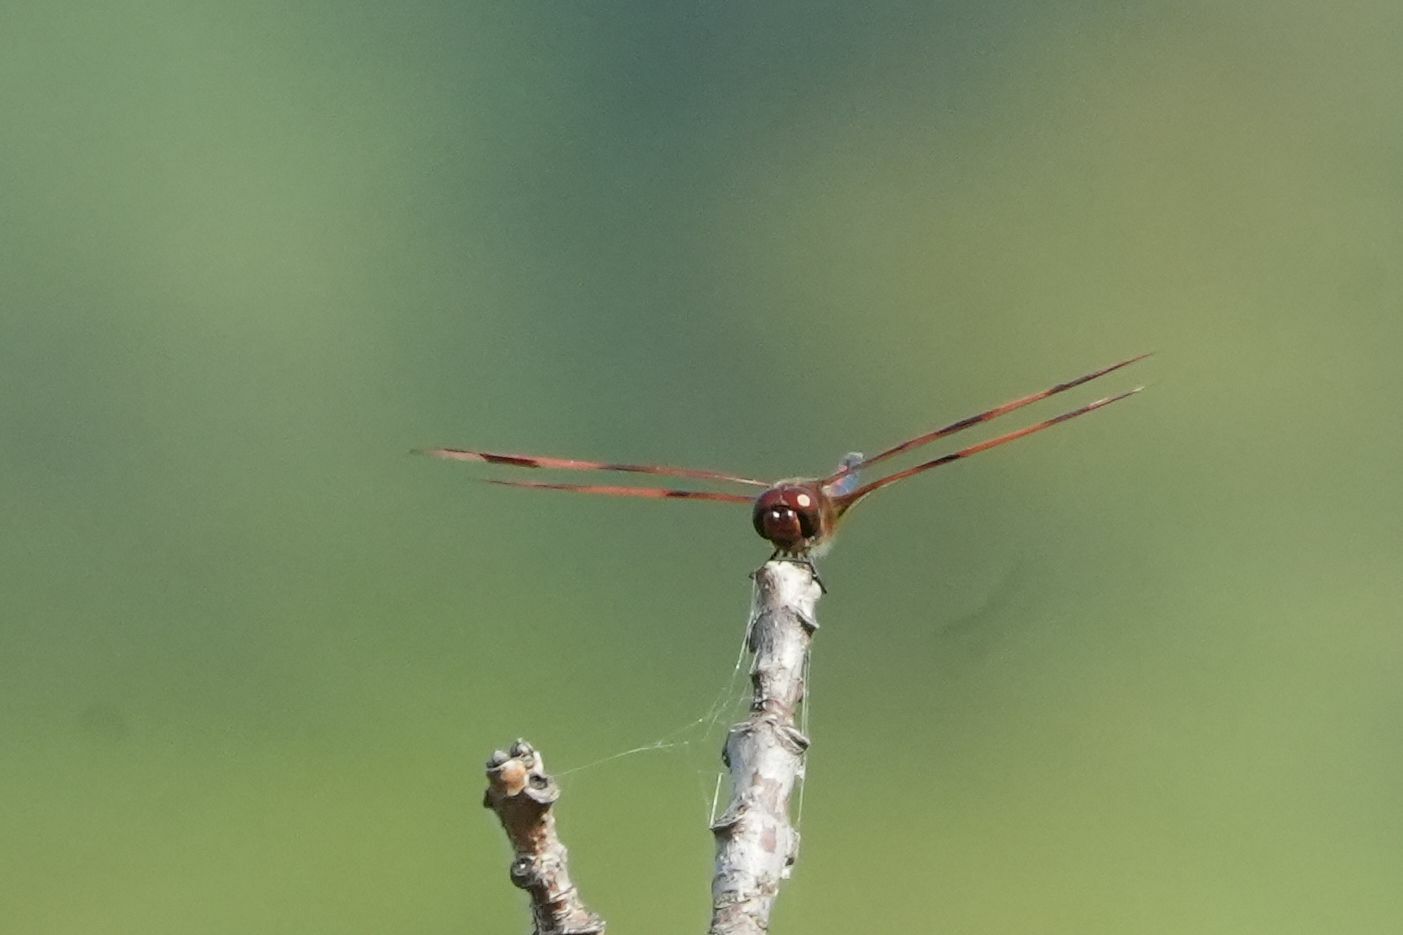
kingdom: Animalia
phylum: Arthropoda
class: Insecta
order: Odonata
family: Libellulidae
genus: Celithemis
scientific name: Celithemis eponina
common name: Halloween pennant
